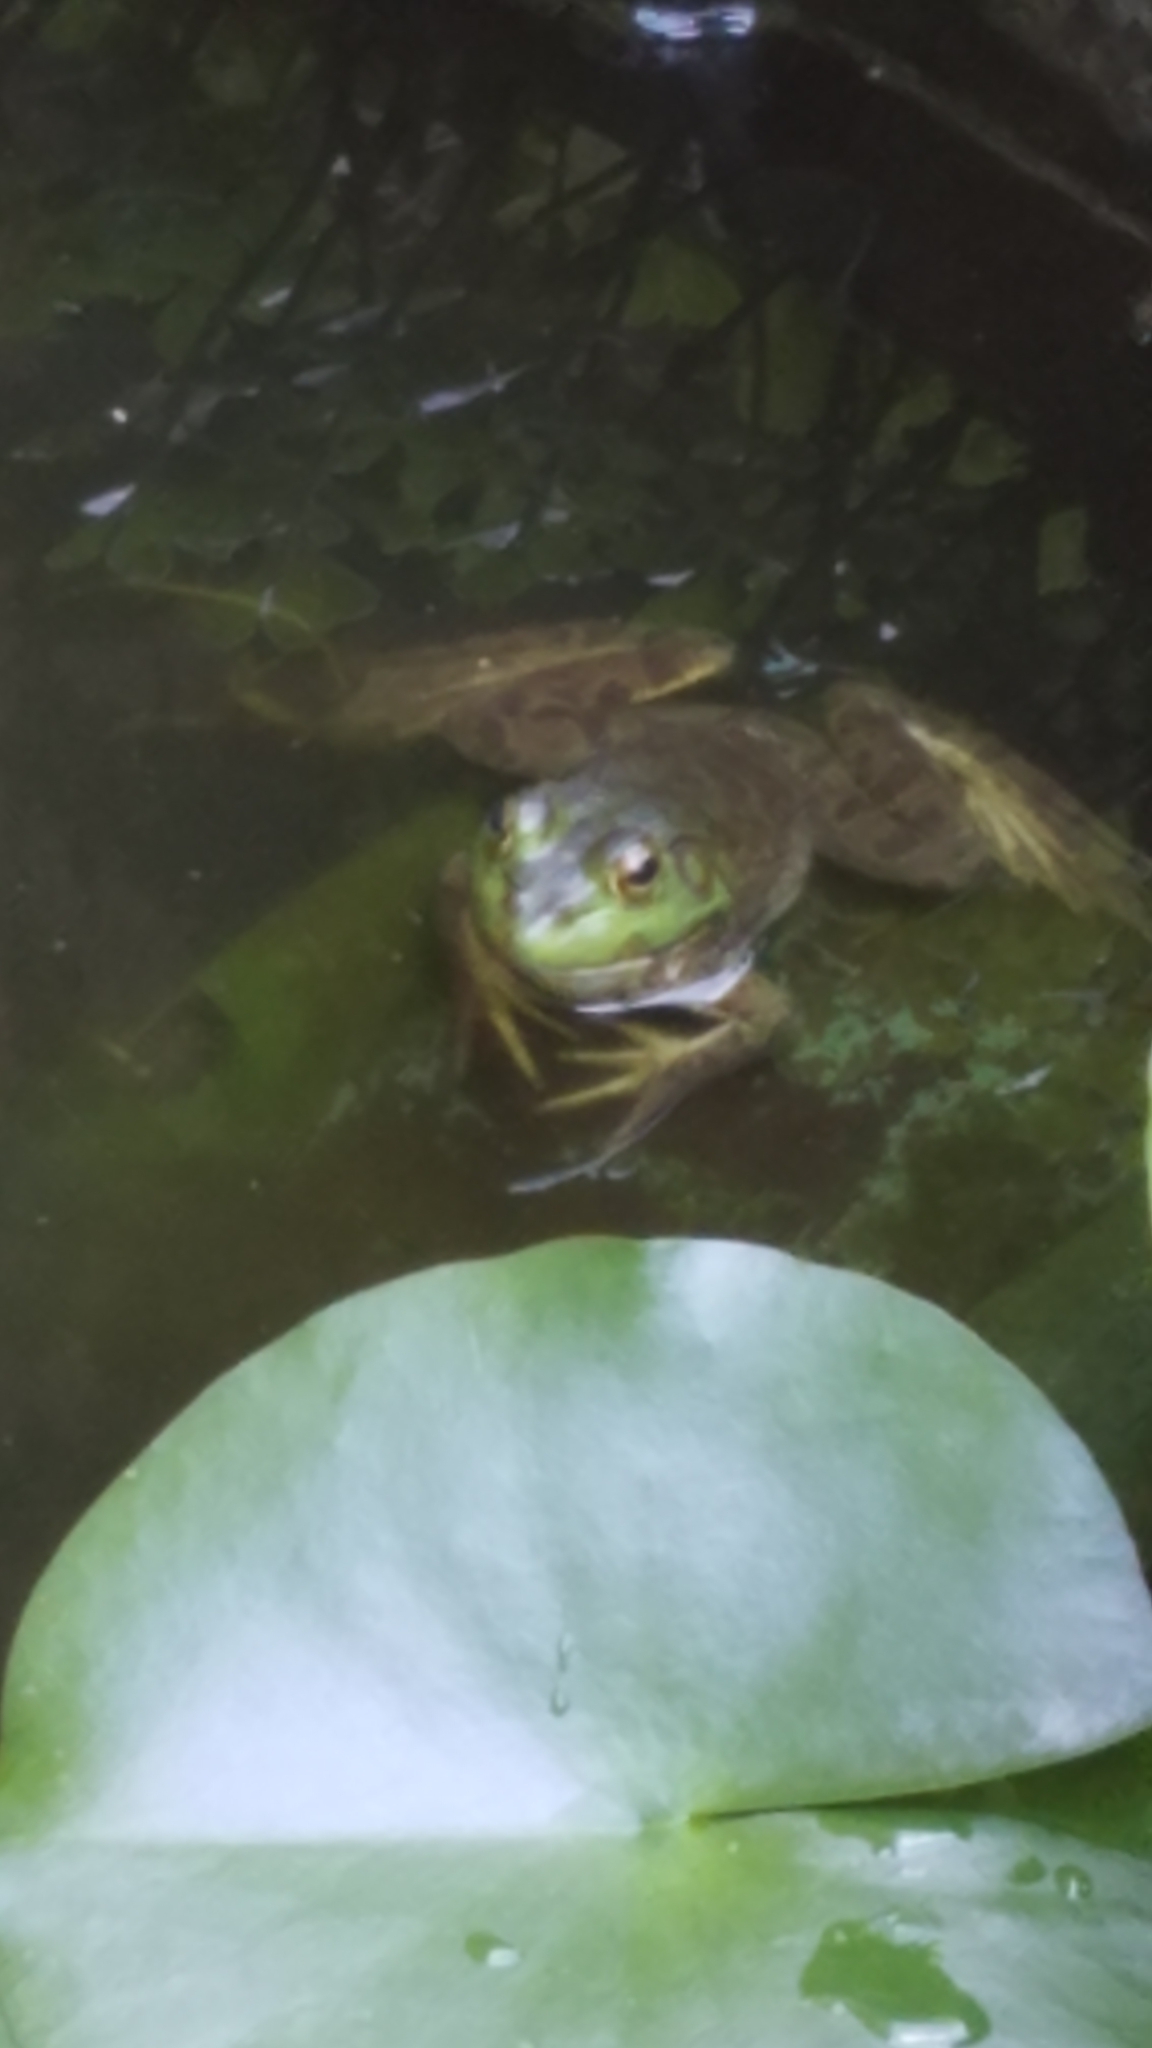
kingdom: Animalia
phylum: Chordata
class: Amphibia
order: Anura
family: Ranidae
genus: Lithobates
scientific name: Lithobates catesbeianus
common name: American bullfrog
